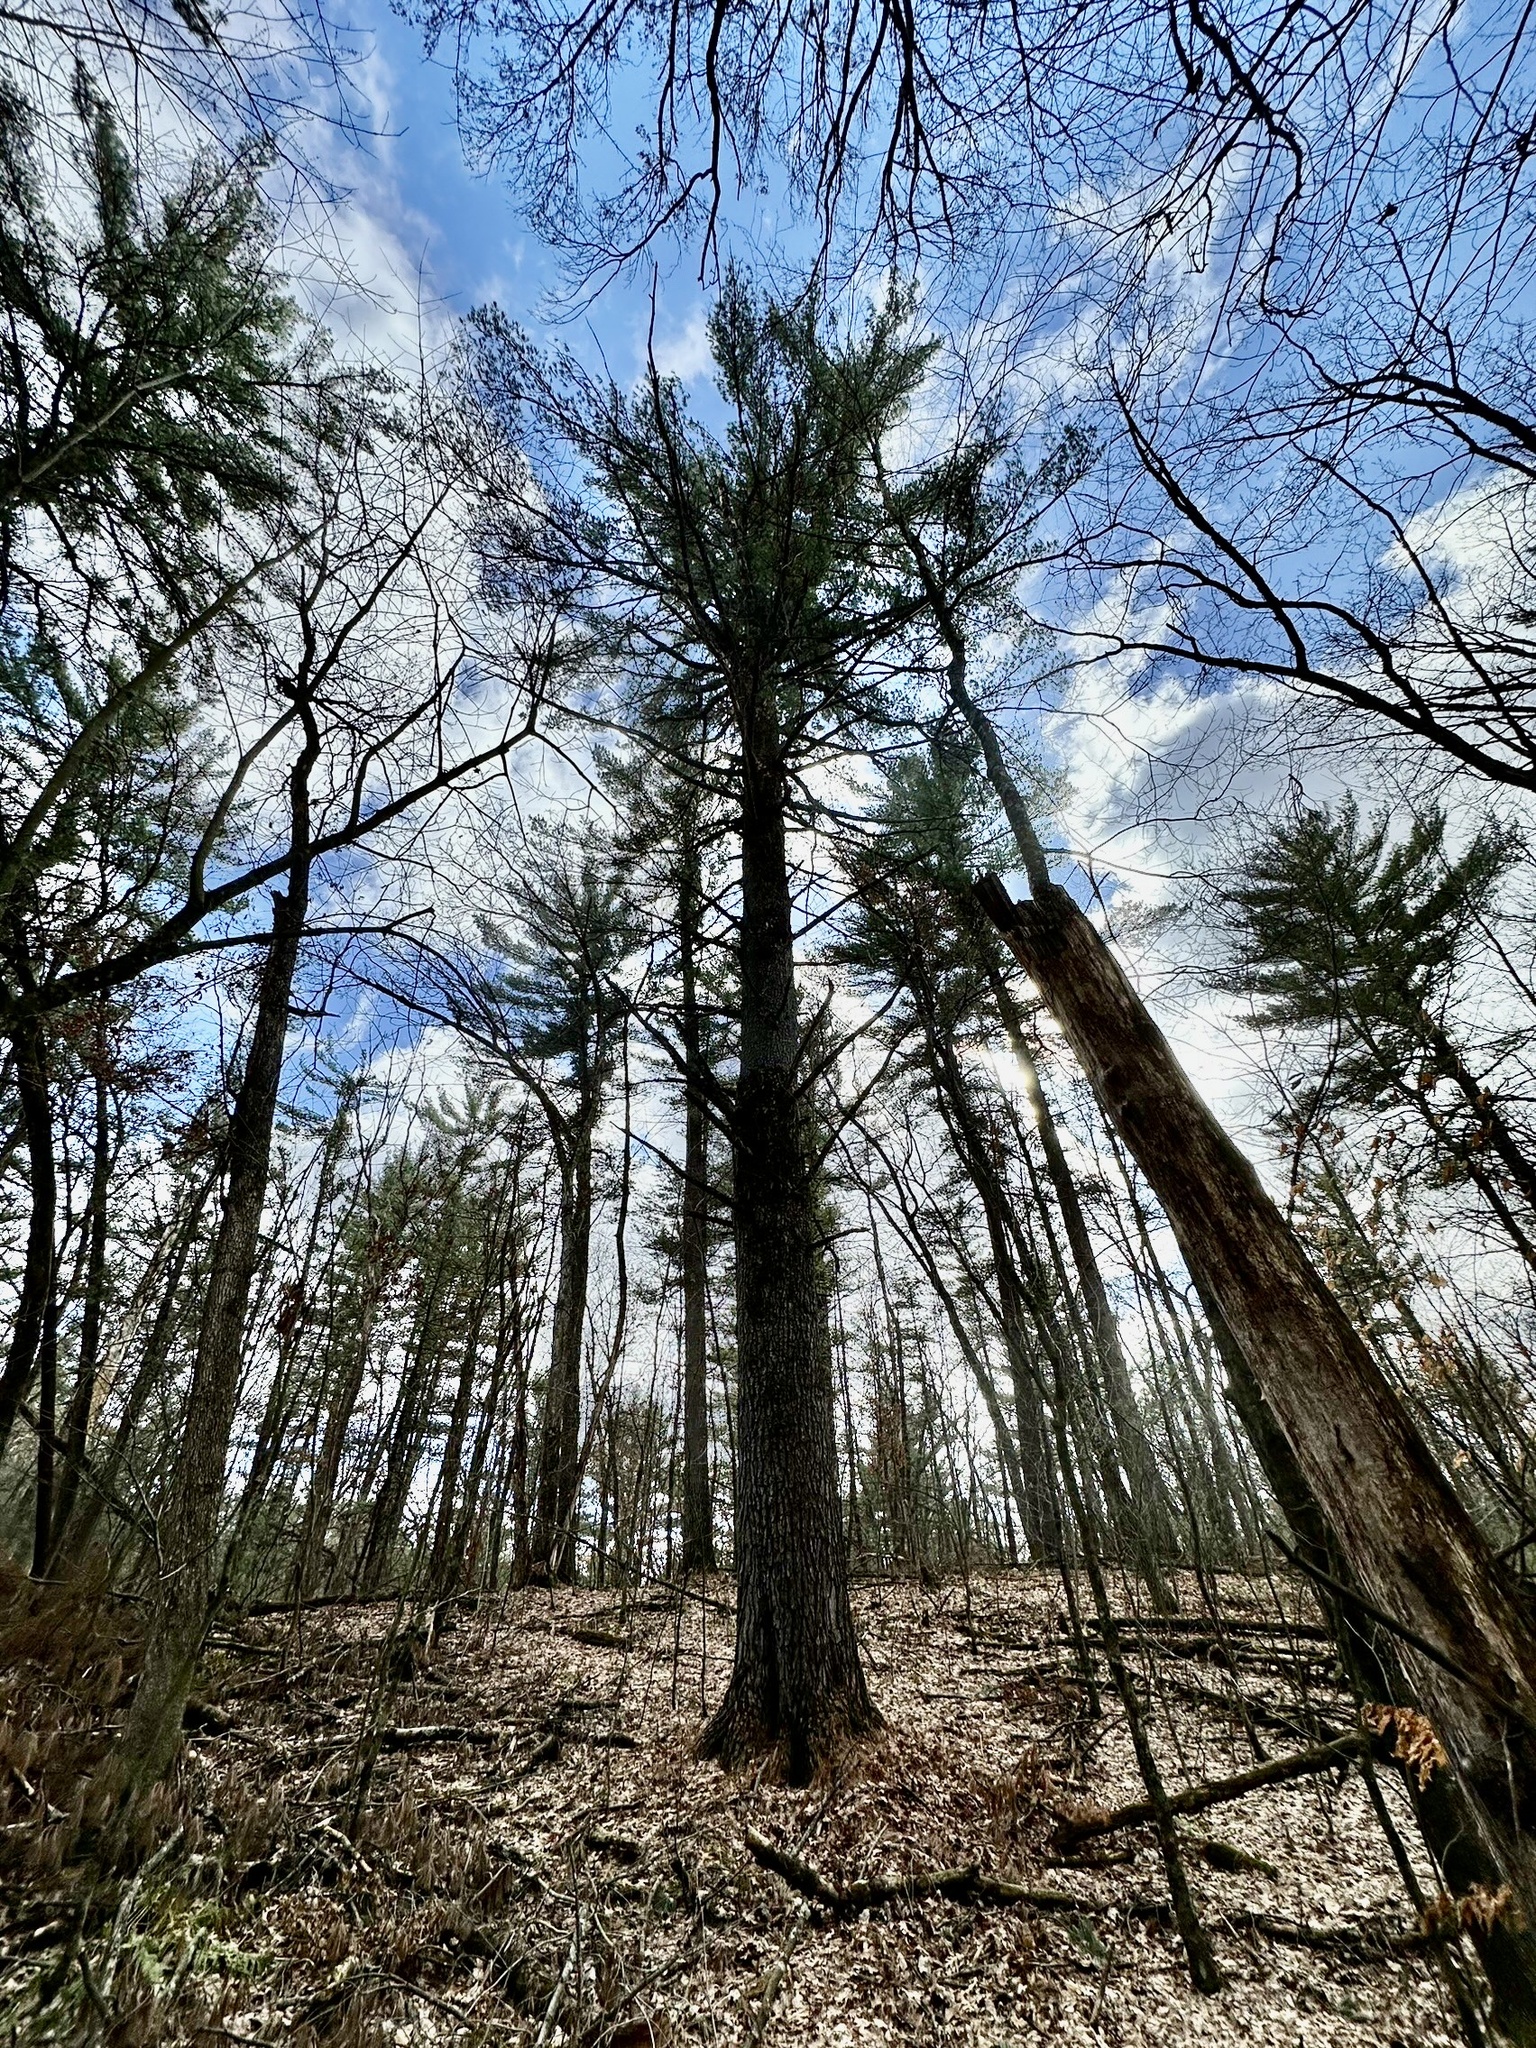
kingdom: Plantae
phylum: Tracheophyta
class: Pinopsida
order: Pinales
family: Pinaceae
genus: Pinus
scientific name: Pinus strobus
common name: Weymouth pine
